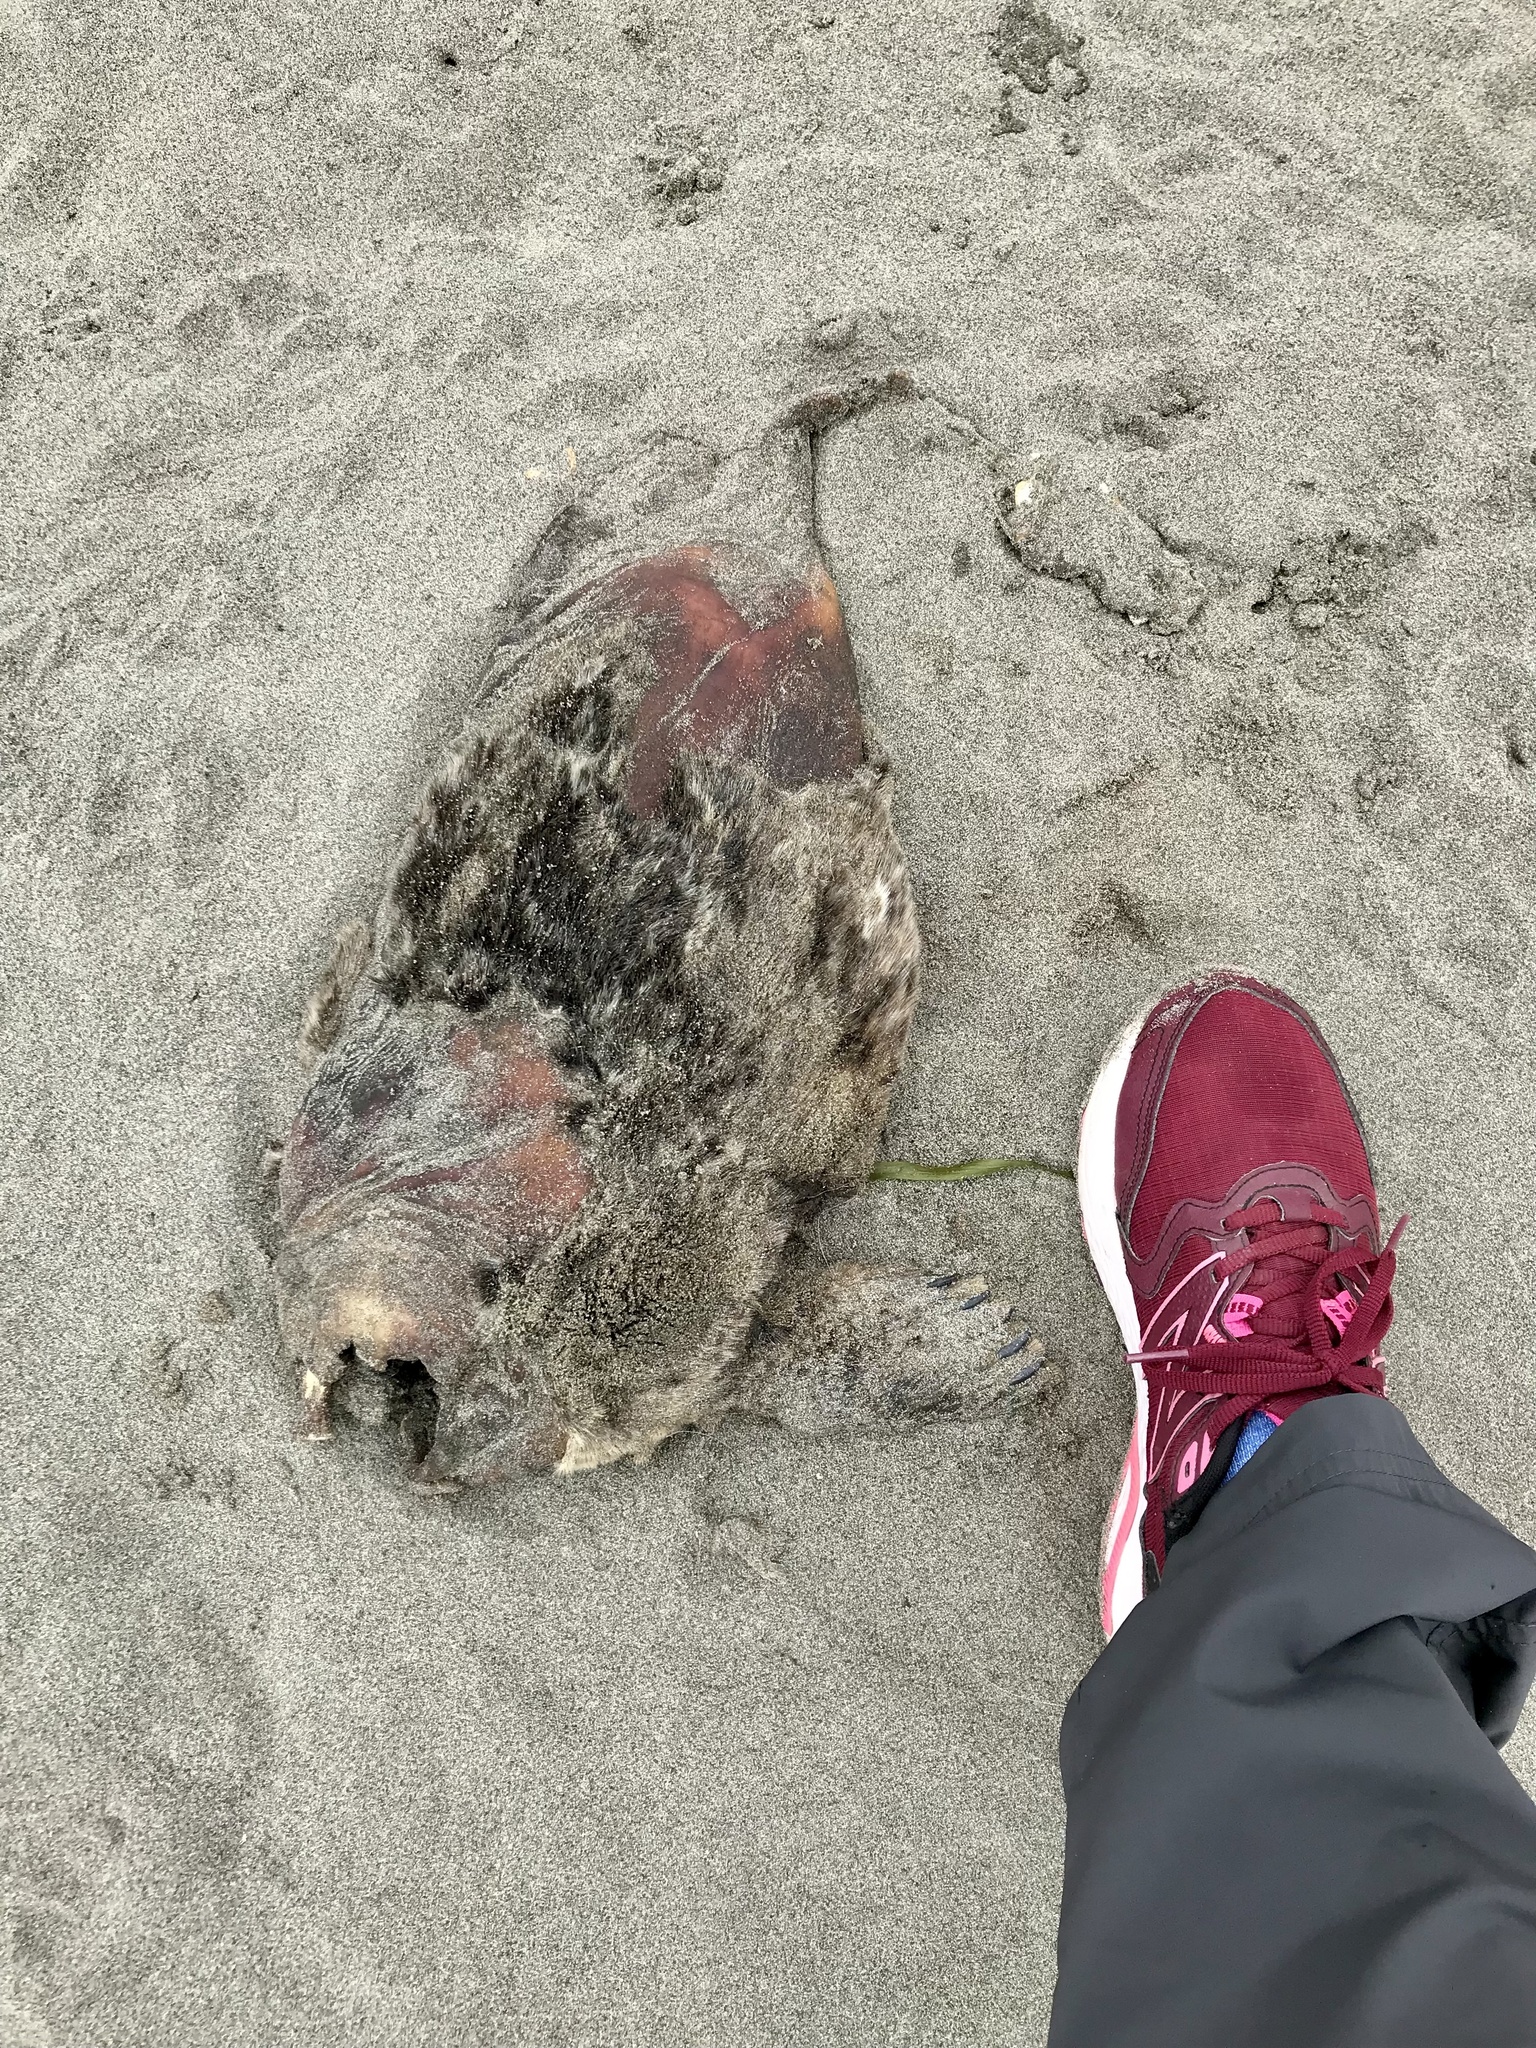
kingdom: Animalia
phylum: Chordata
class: Mammalia
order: Carnivora
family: Phocidae
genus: Phoca
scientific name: Phoca vitulina
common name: Harbor seal
